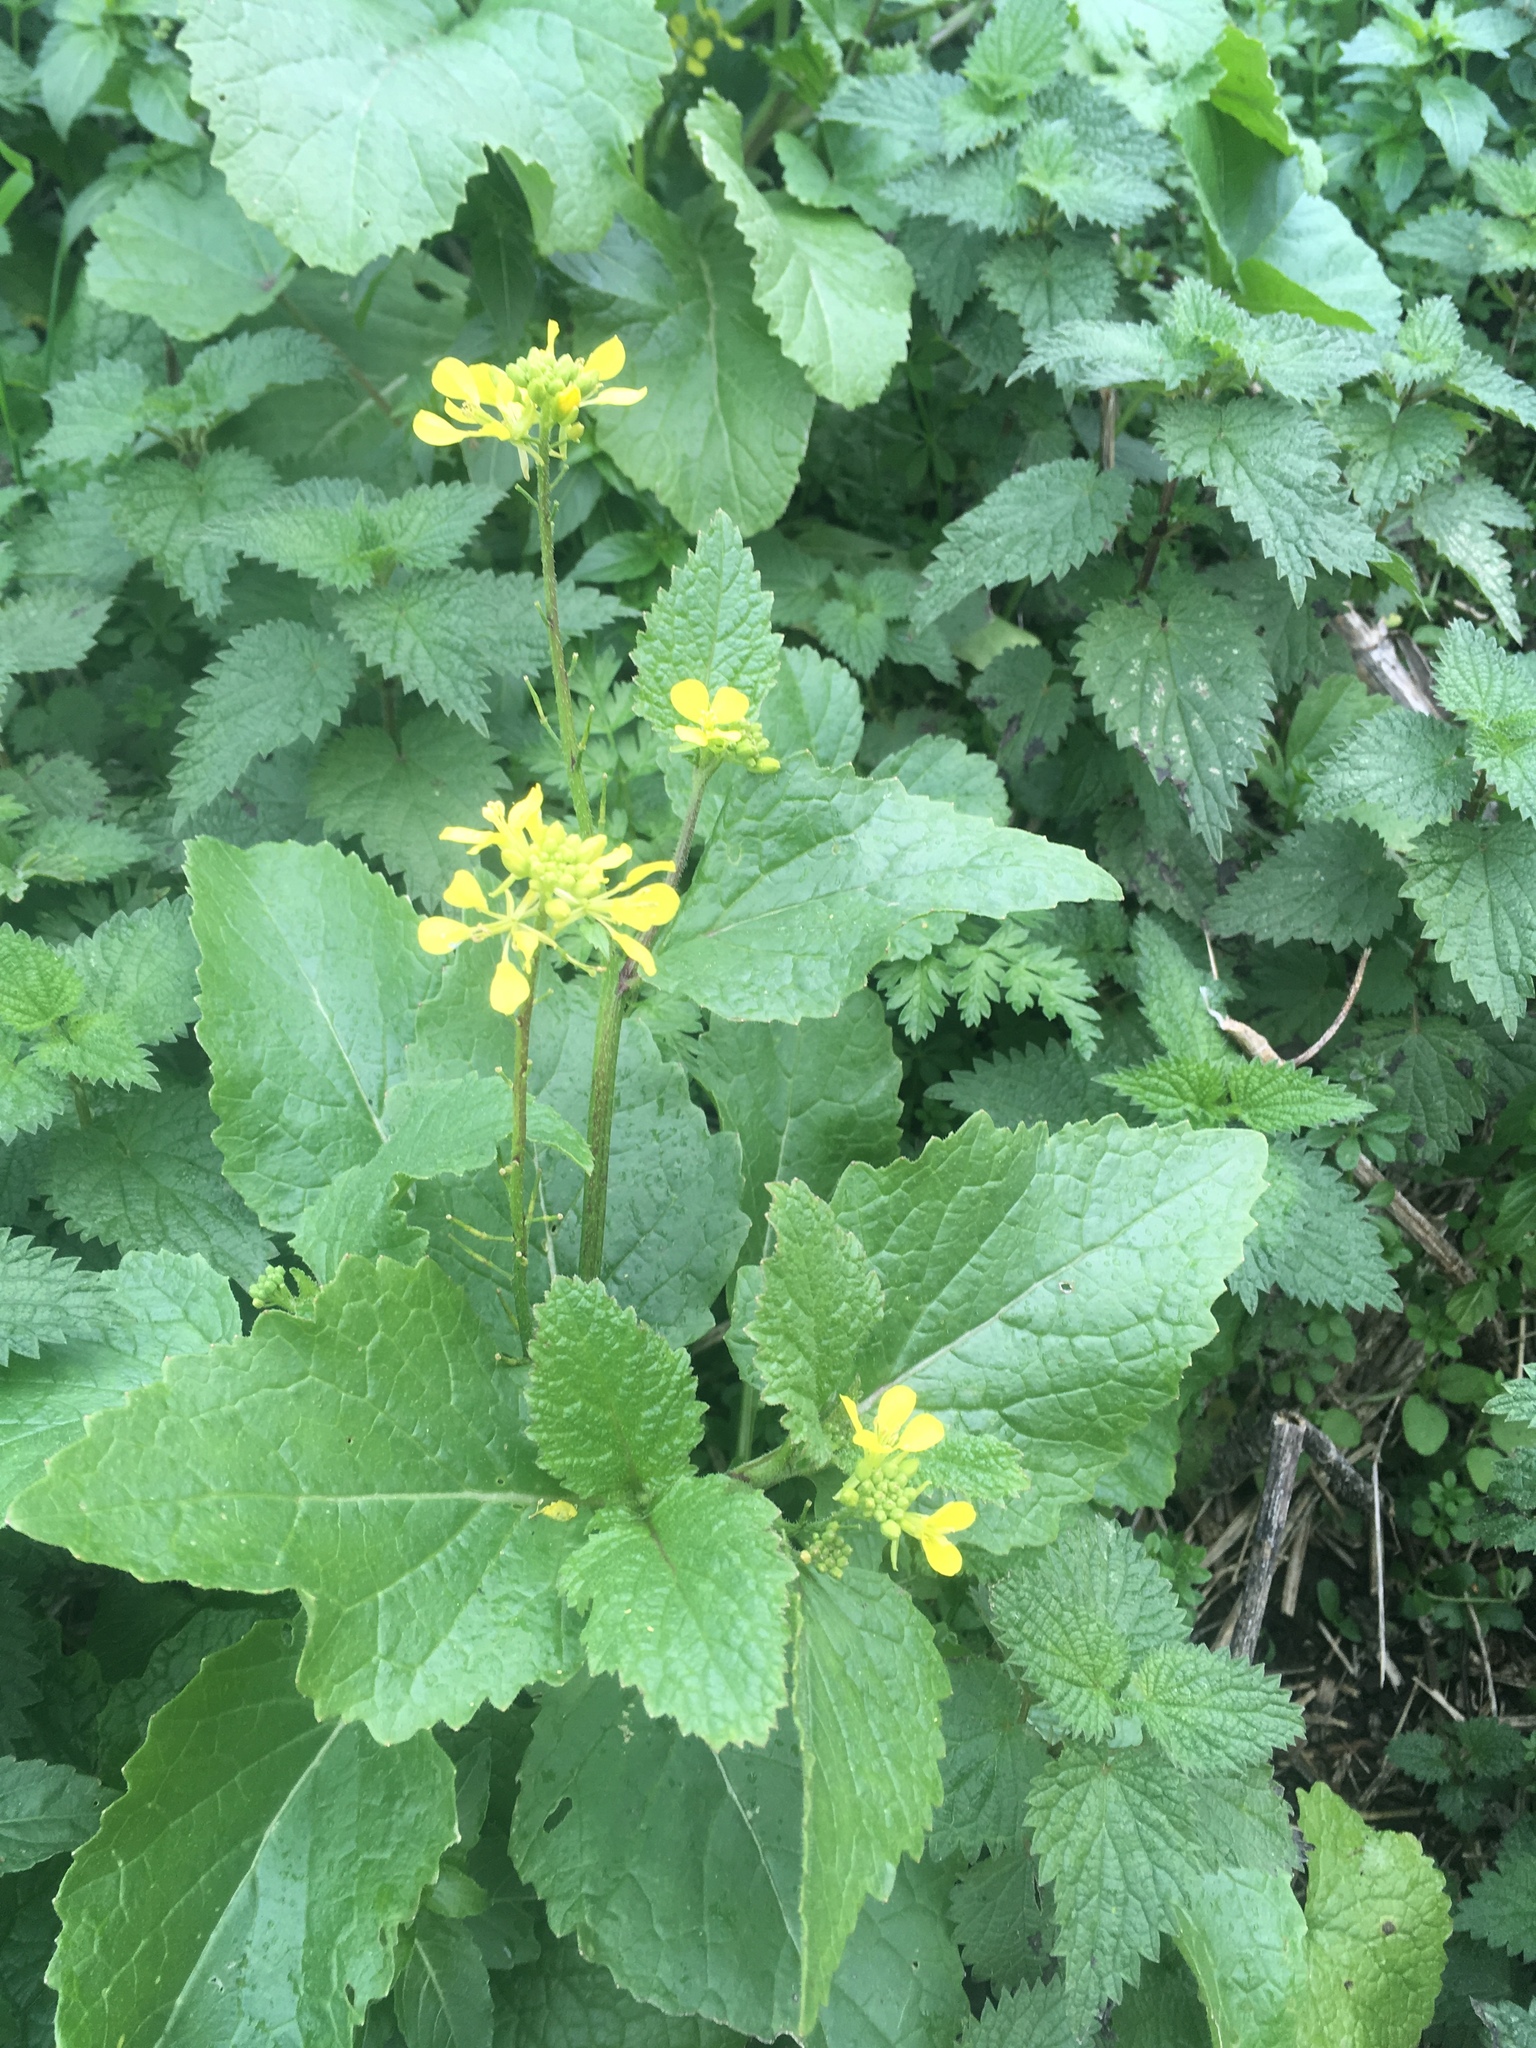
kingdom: Plantae
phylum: Tracheophyta
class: Magnoliopsida
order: Brassicales
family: Brassicaceae
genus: Sinapis
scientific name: Sinapis arvensis
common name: Charlock
